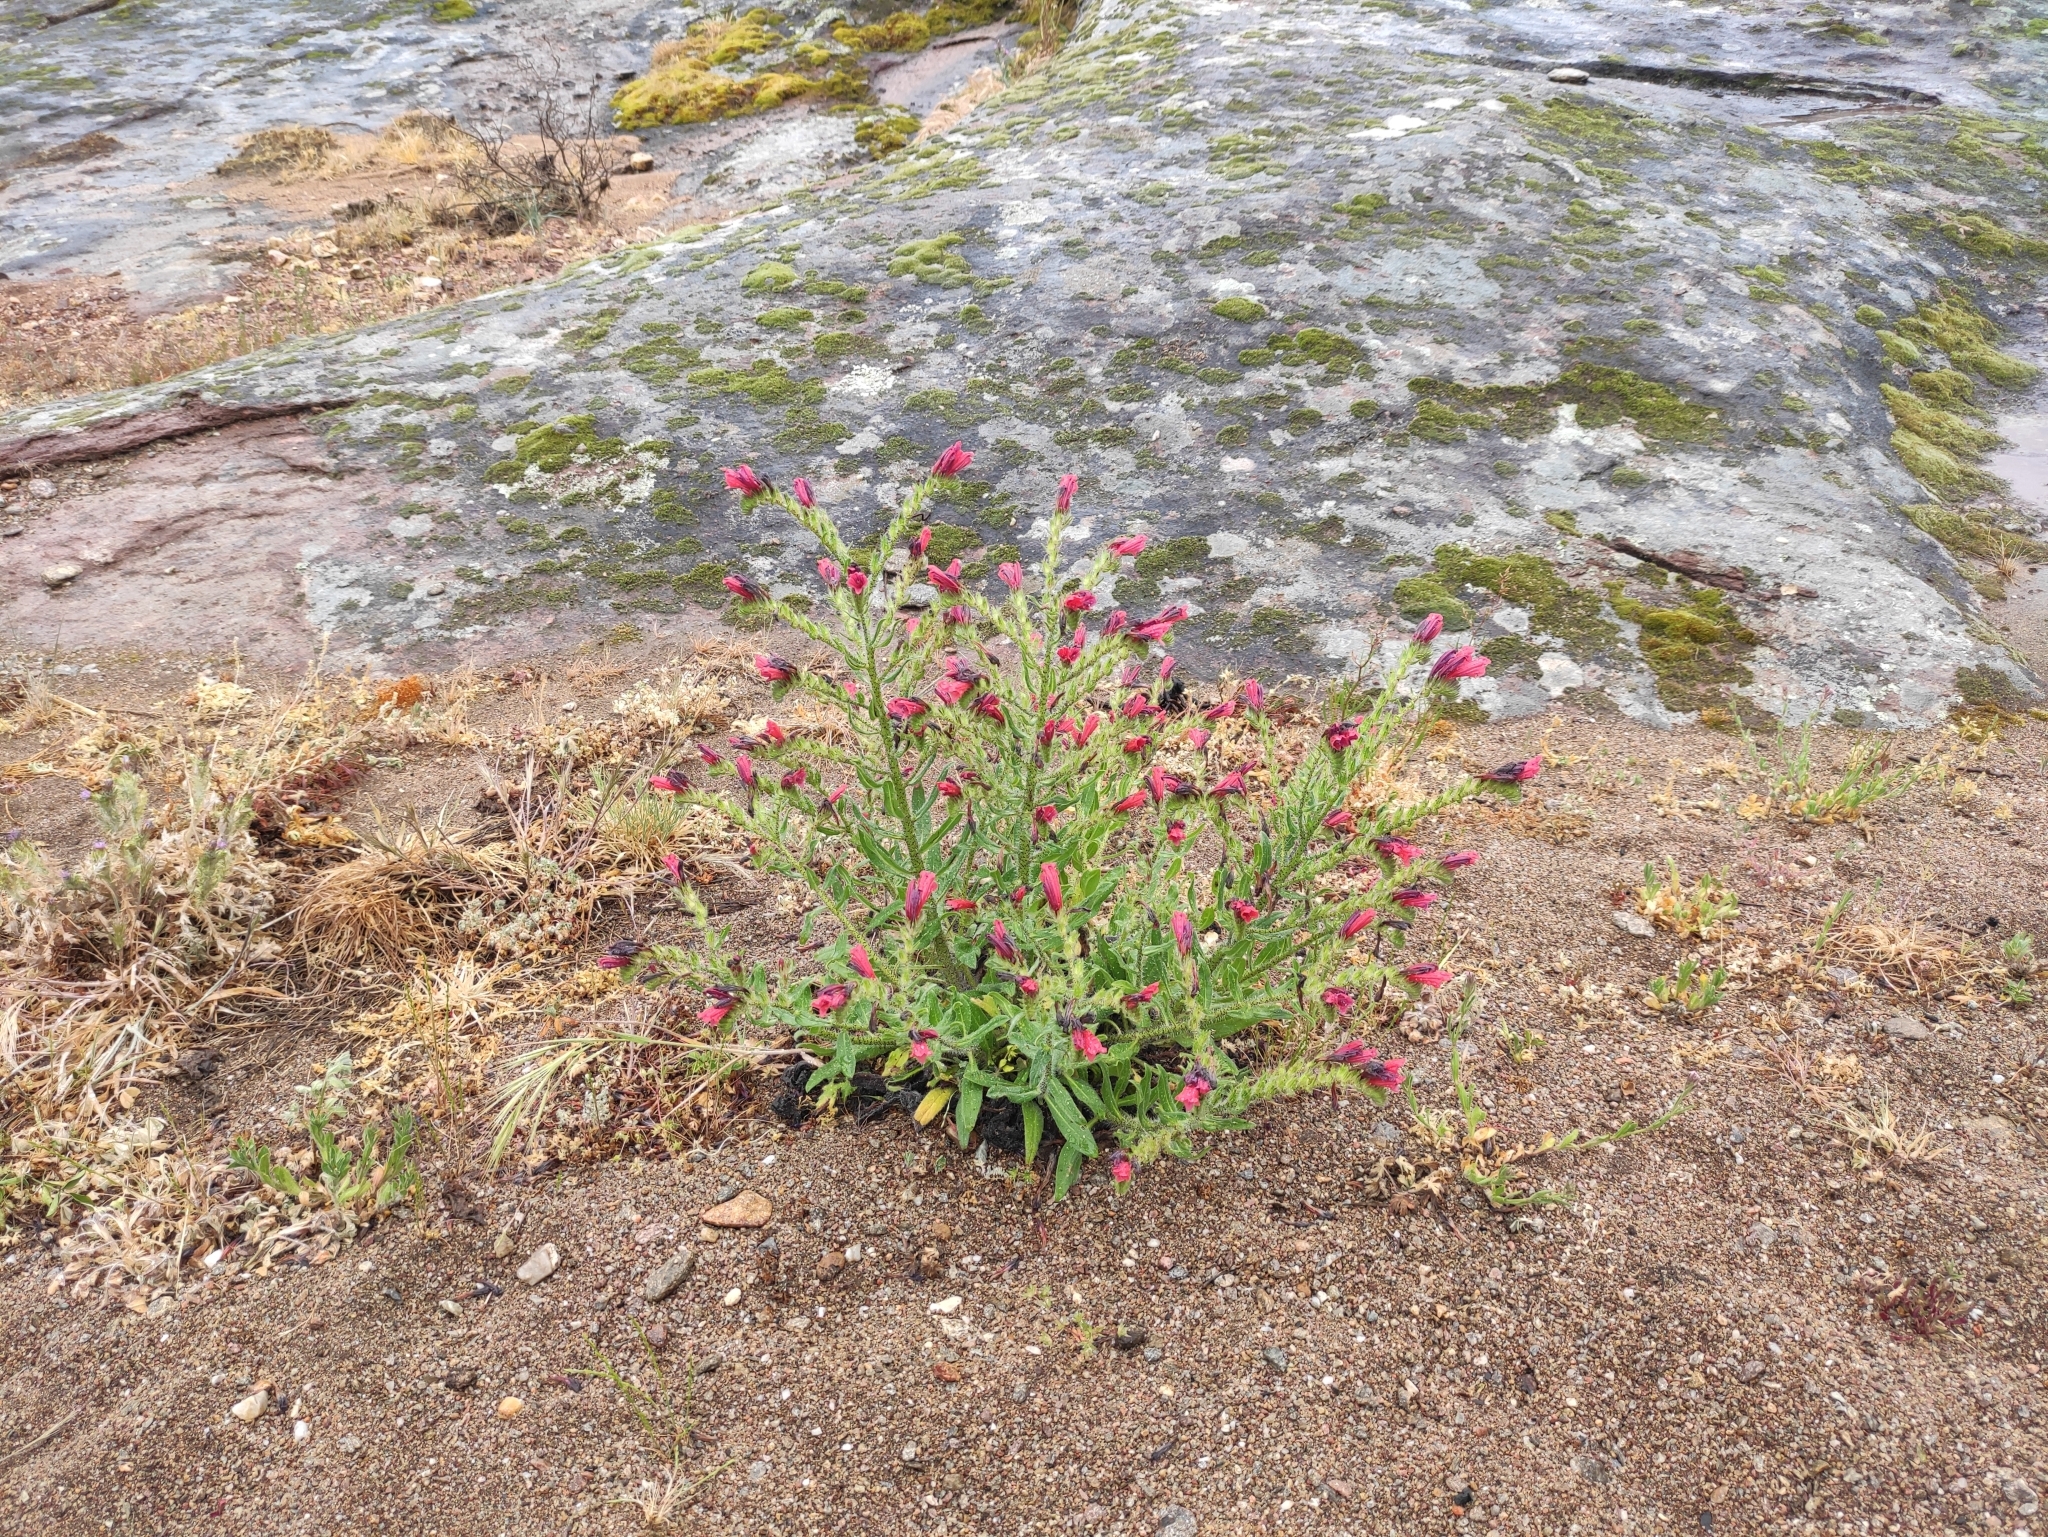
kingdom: Plantae
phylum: Tracheophyta
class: Magnoliopsida
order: Boraginales
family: Boraginaceae
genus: Echium
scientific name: Echium creticum
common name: Cretan viper's bugloss
